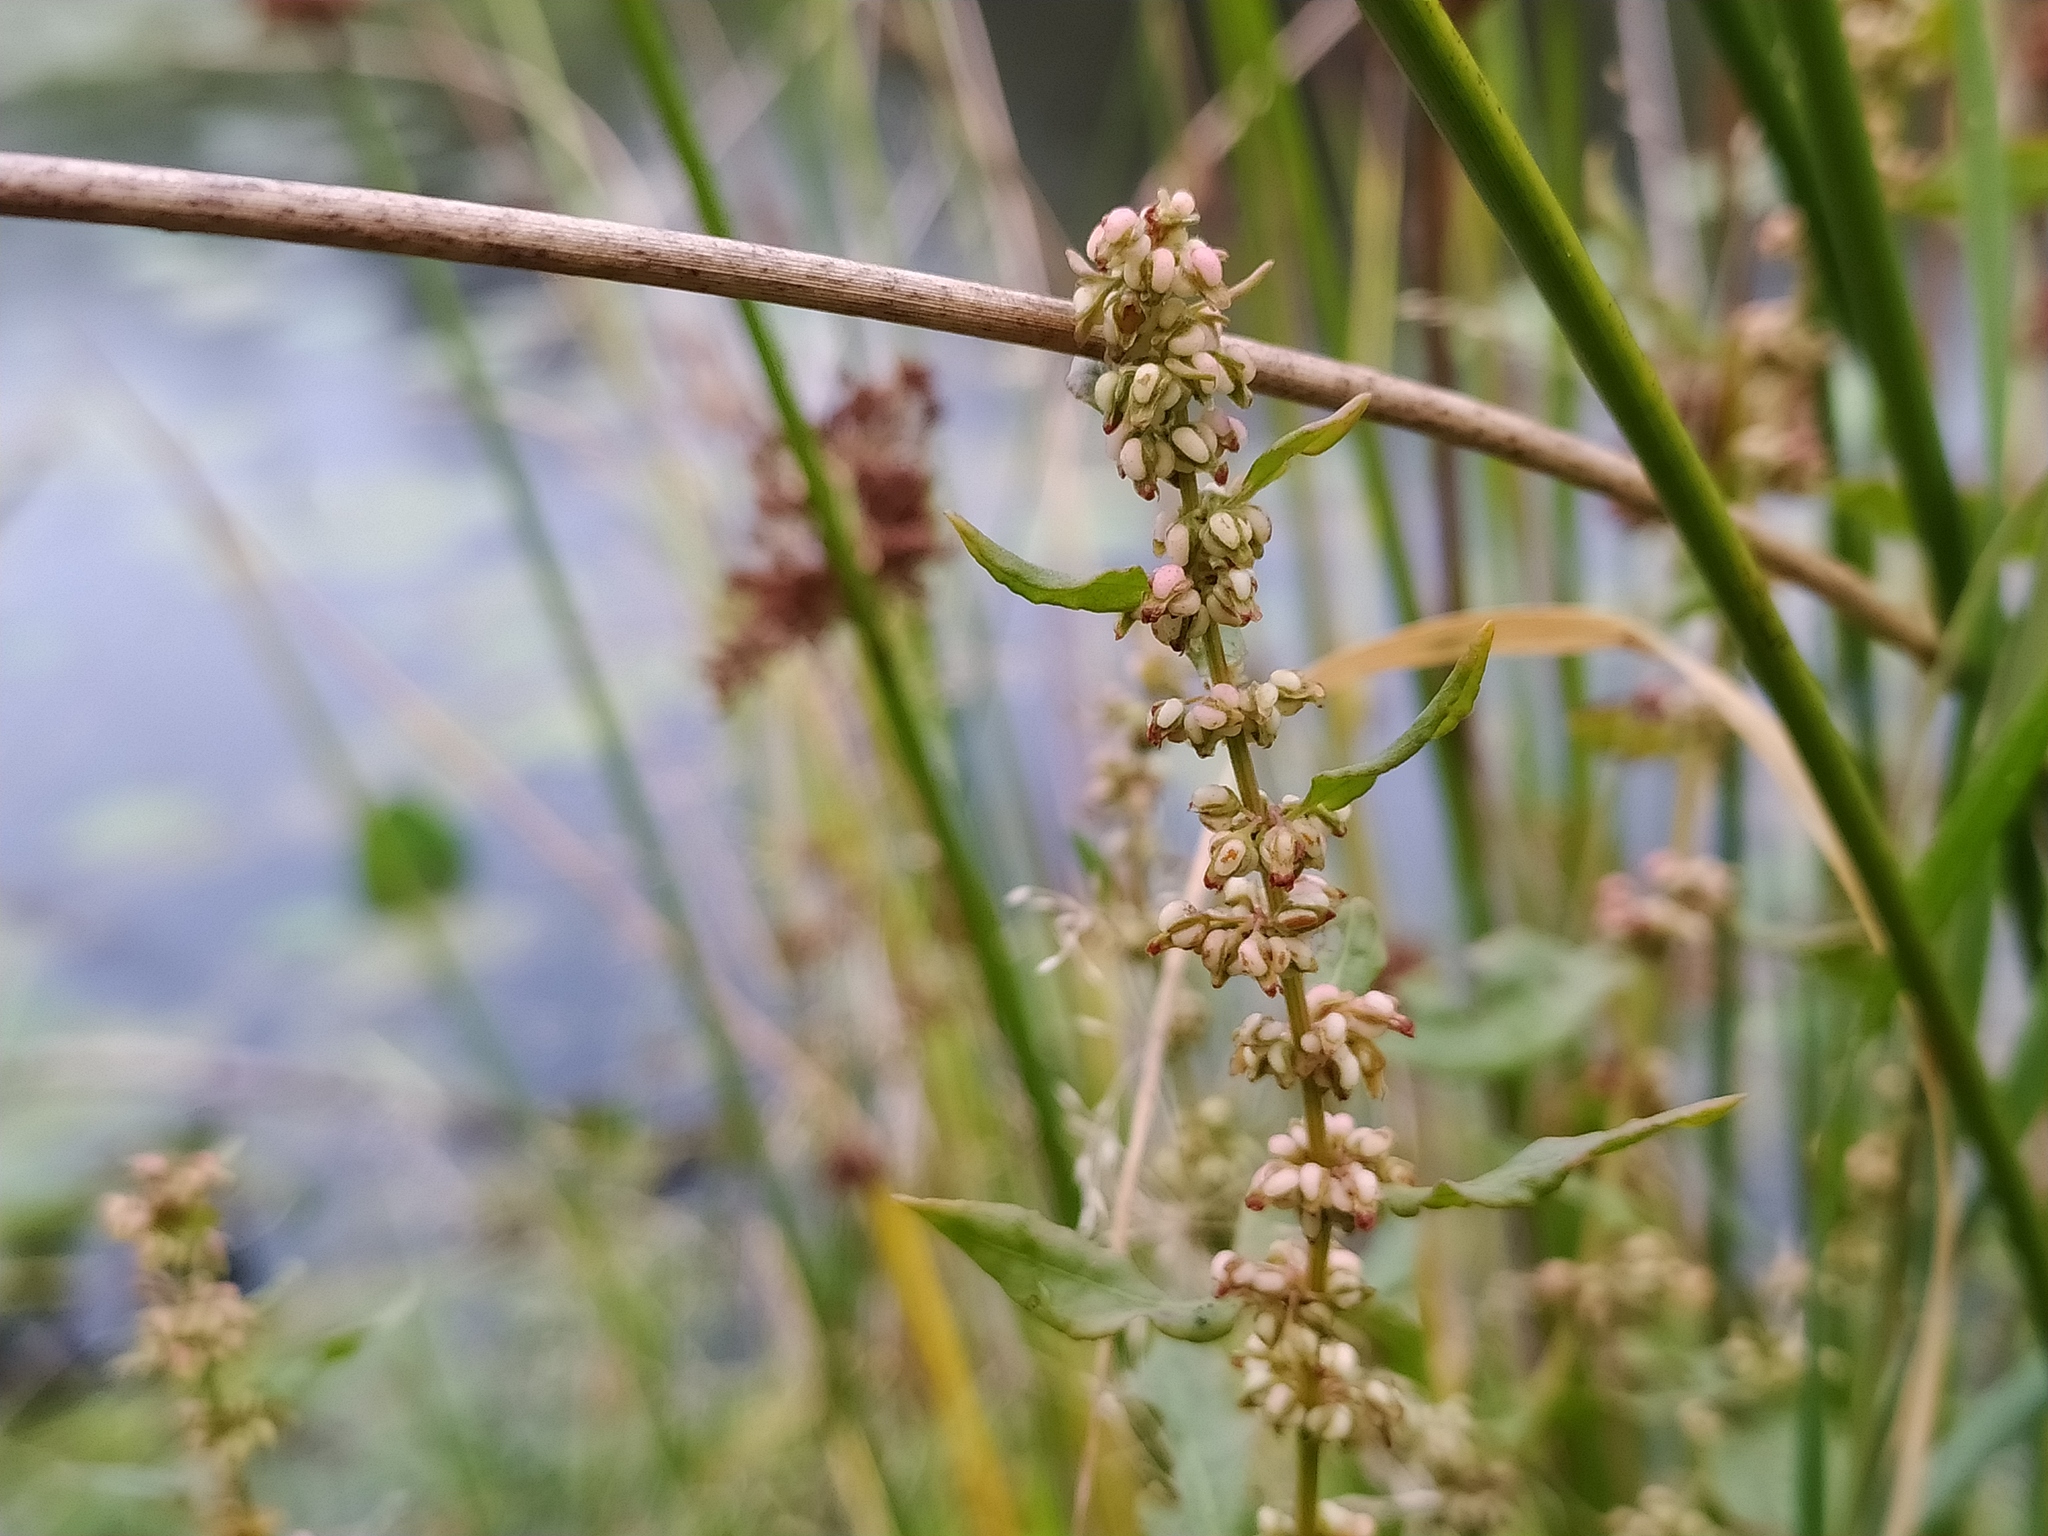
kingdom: Plantae
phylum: Tracheophyta
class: Magnoliopsida
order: Caryophyllales
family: Polygonaceae
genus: Rumex
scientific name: Rumex conglomeratus
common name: Clustered dock
